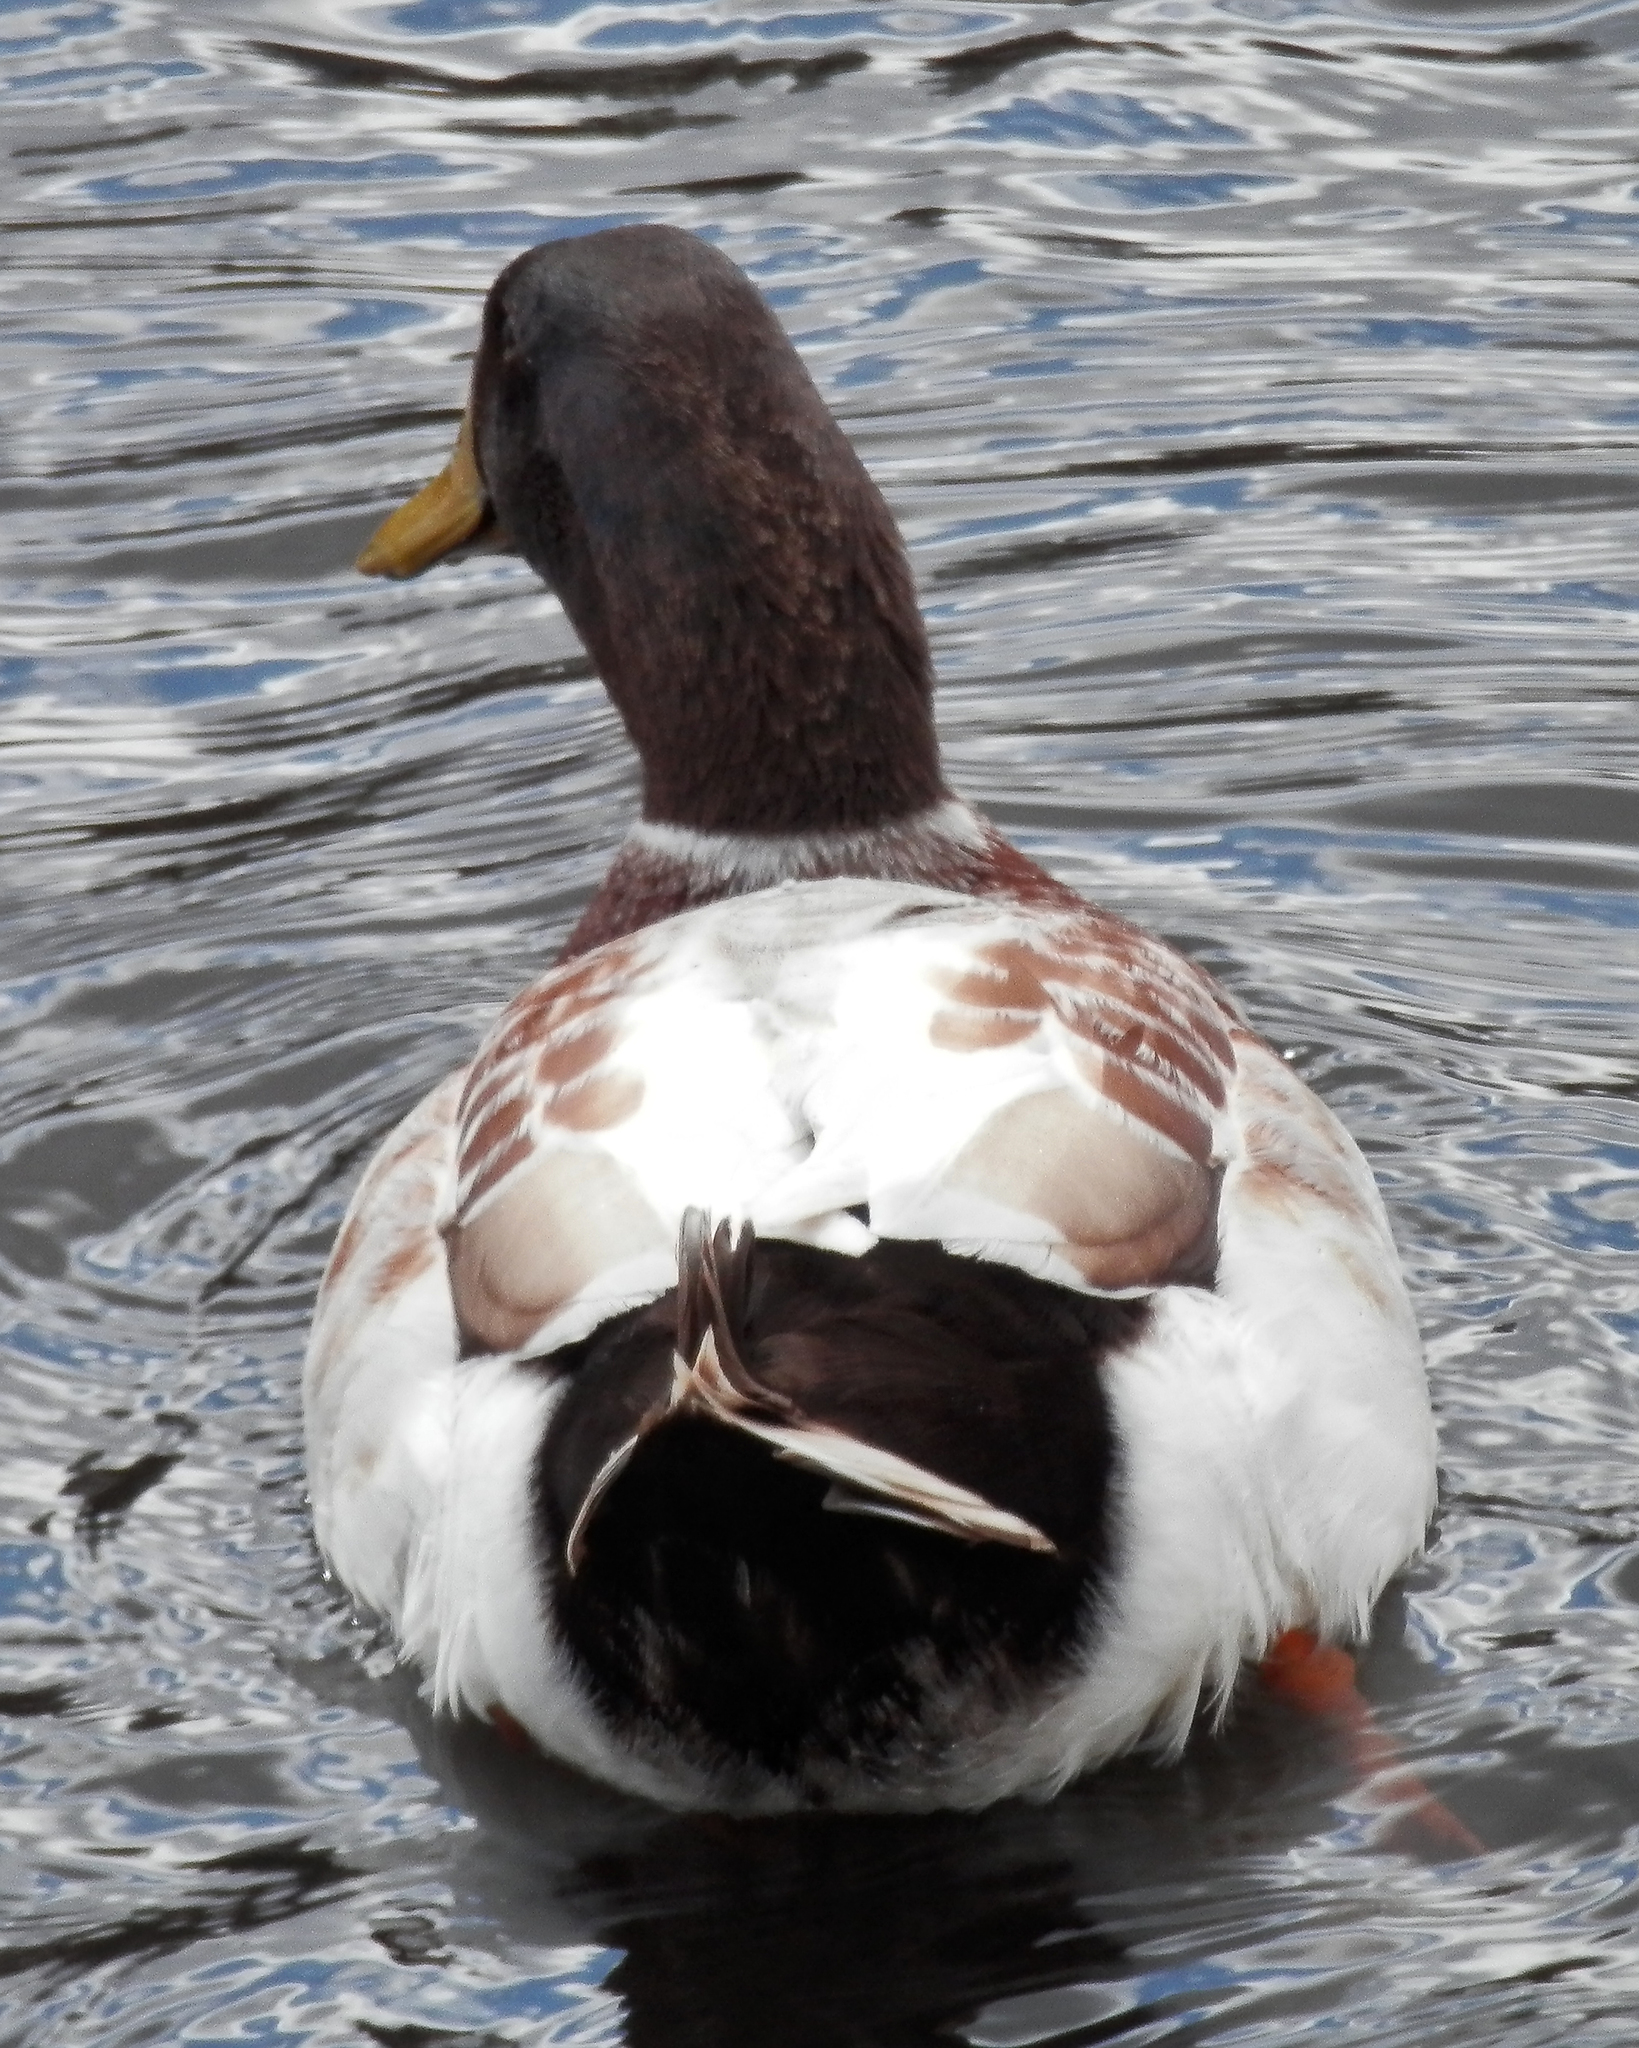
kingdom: Animalia
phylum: Chordata
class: Aves
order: Anseriformes
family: Anatidae
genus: Anas
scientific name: Anas platyrhynchos
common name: Mallard
